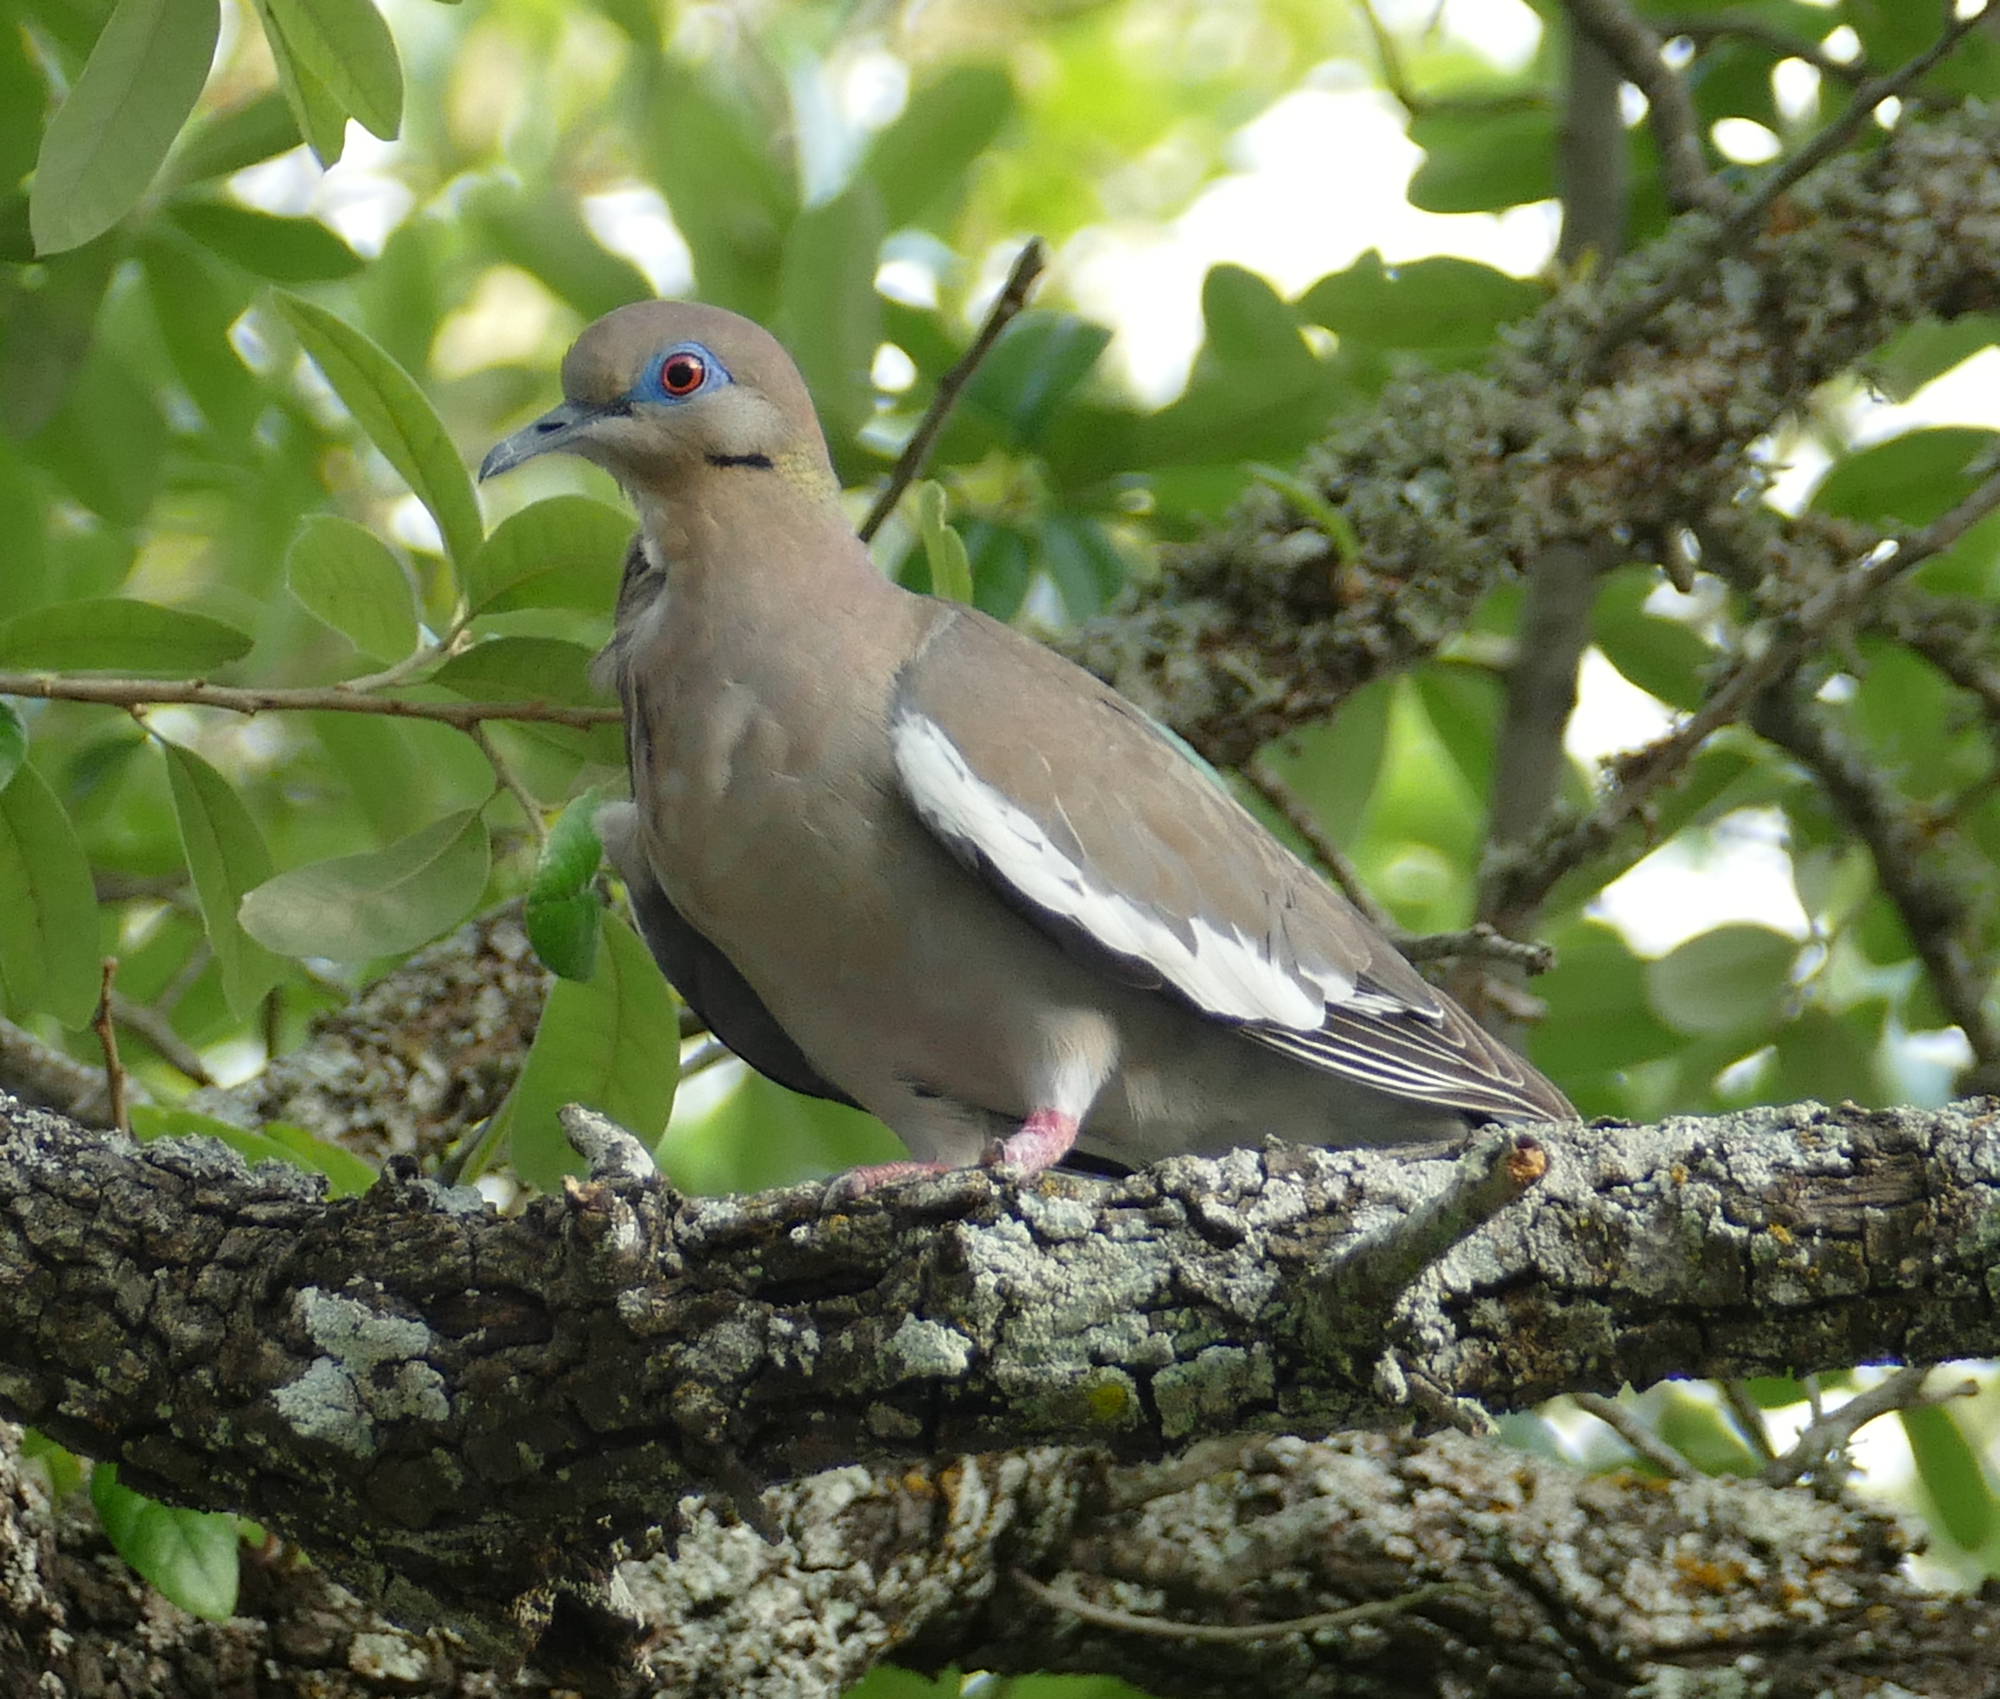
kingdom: Animalia
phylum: Chordata
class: Aves
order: Columbiformes
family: Columbidae
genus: Zenaida
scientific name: Zenaida asiatica
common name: White-winged dove
